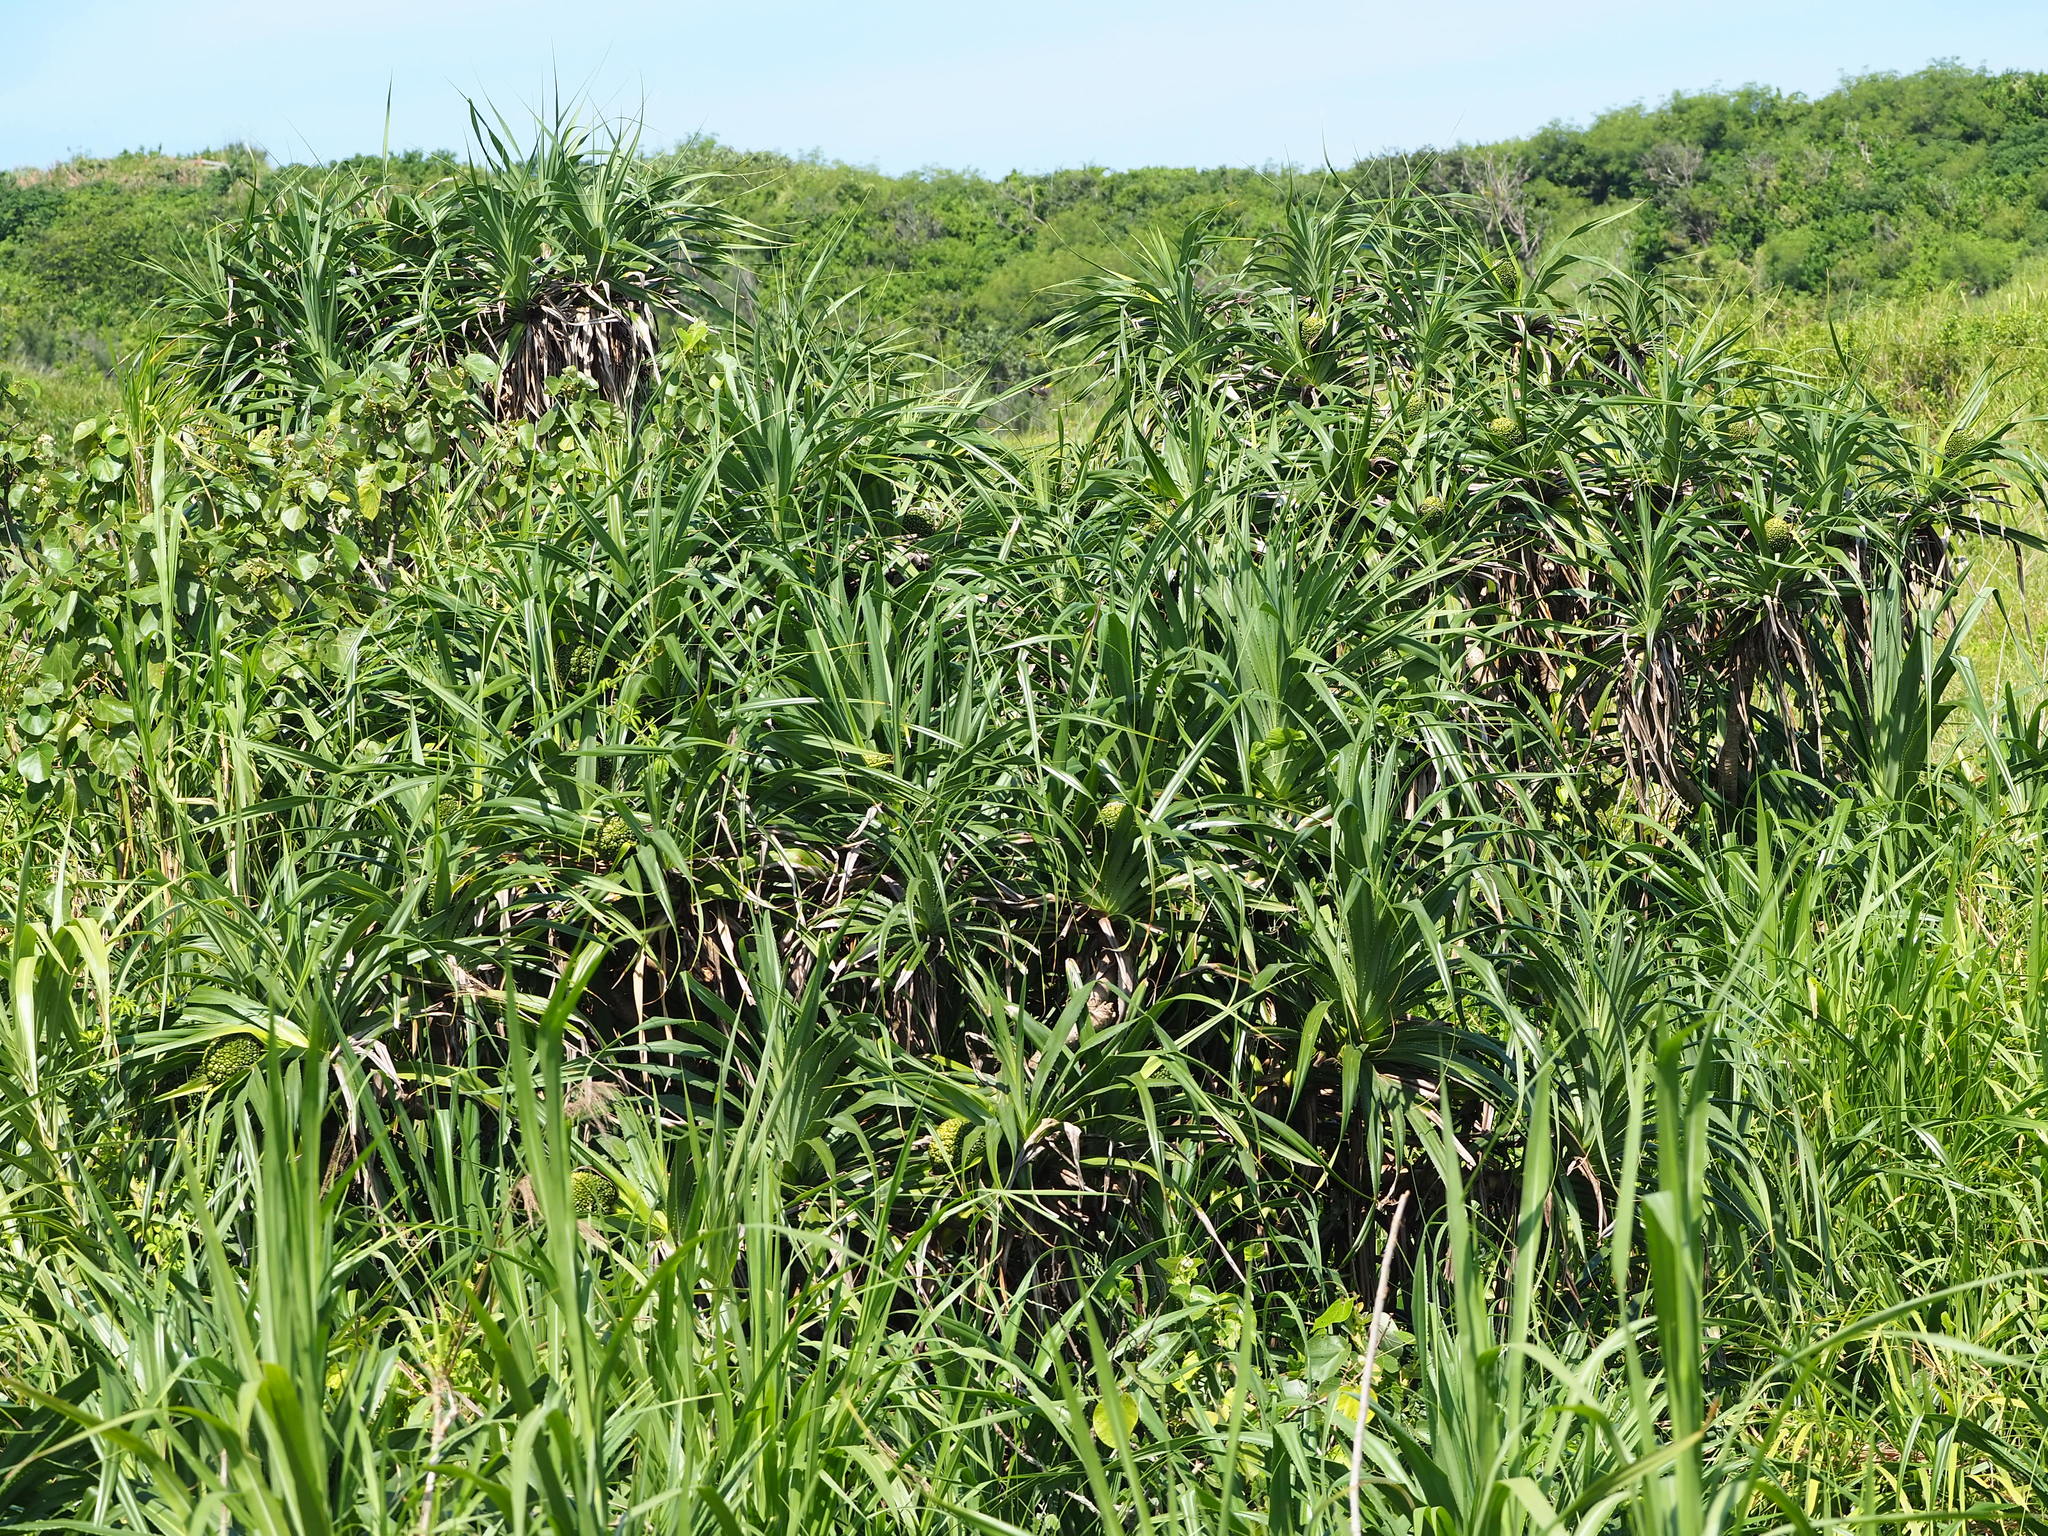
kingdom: Plantae
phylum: Tracheophyta
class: Liliopsida
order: Pandanales
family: Pandanaceae
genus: Pandanus
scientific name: Pandanus odorifer
